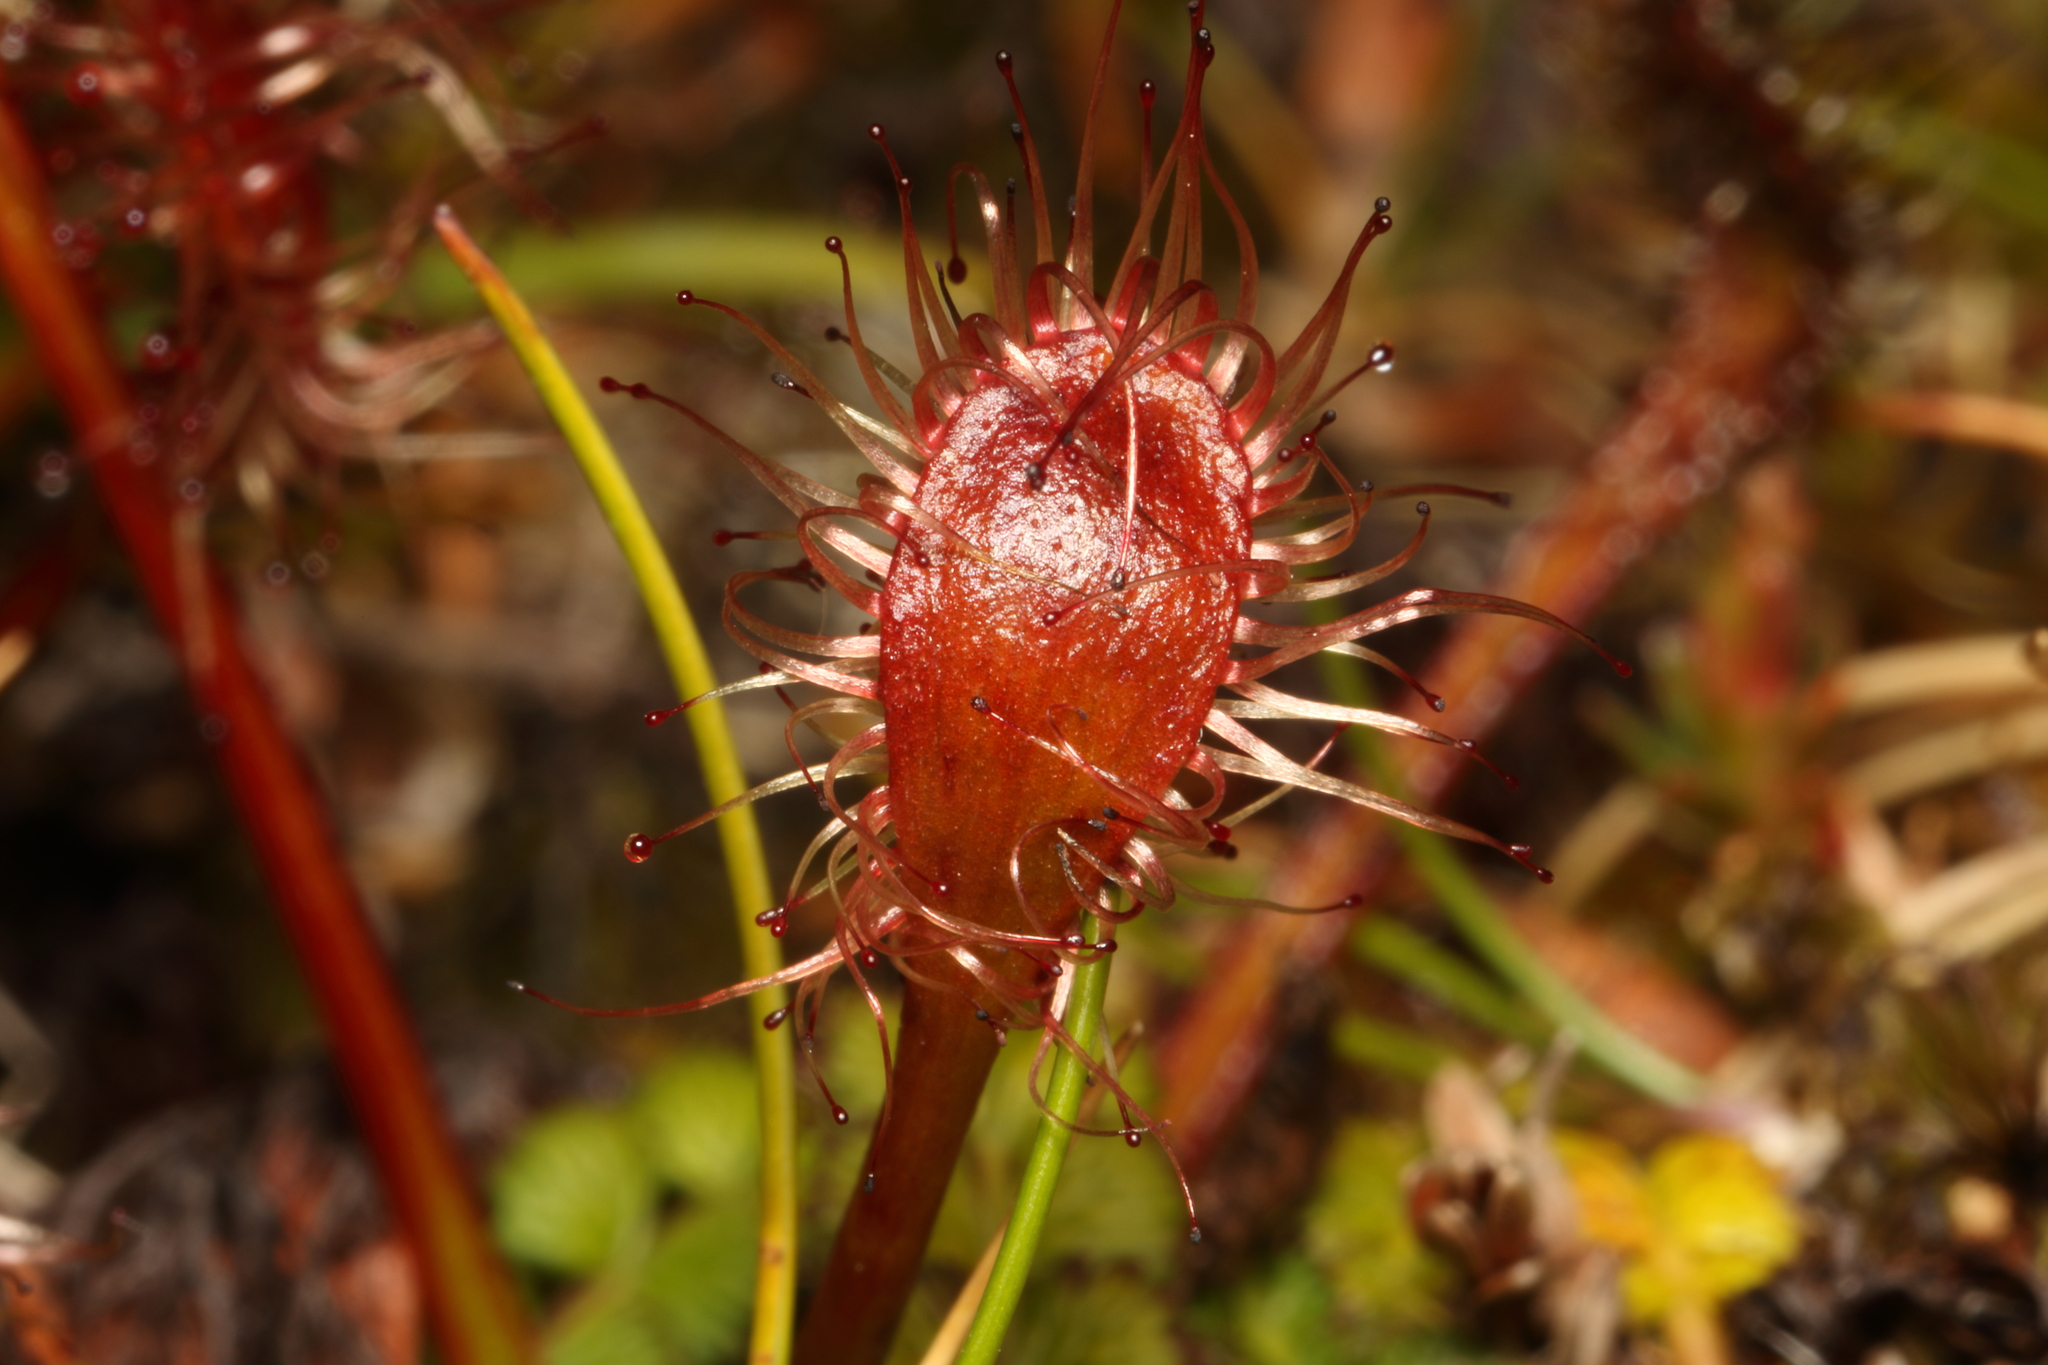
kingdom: Plantae
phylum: Tracheophyta
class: Magnoliopsida
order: Caryophyllales
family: Droseraceae
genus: Drosera
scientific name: Drosera stenopetala
